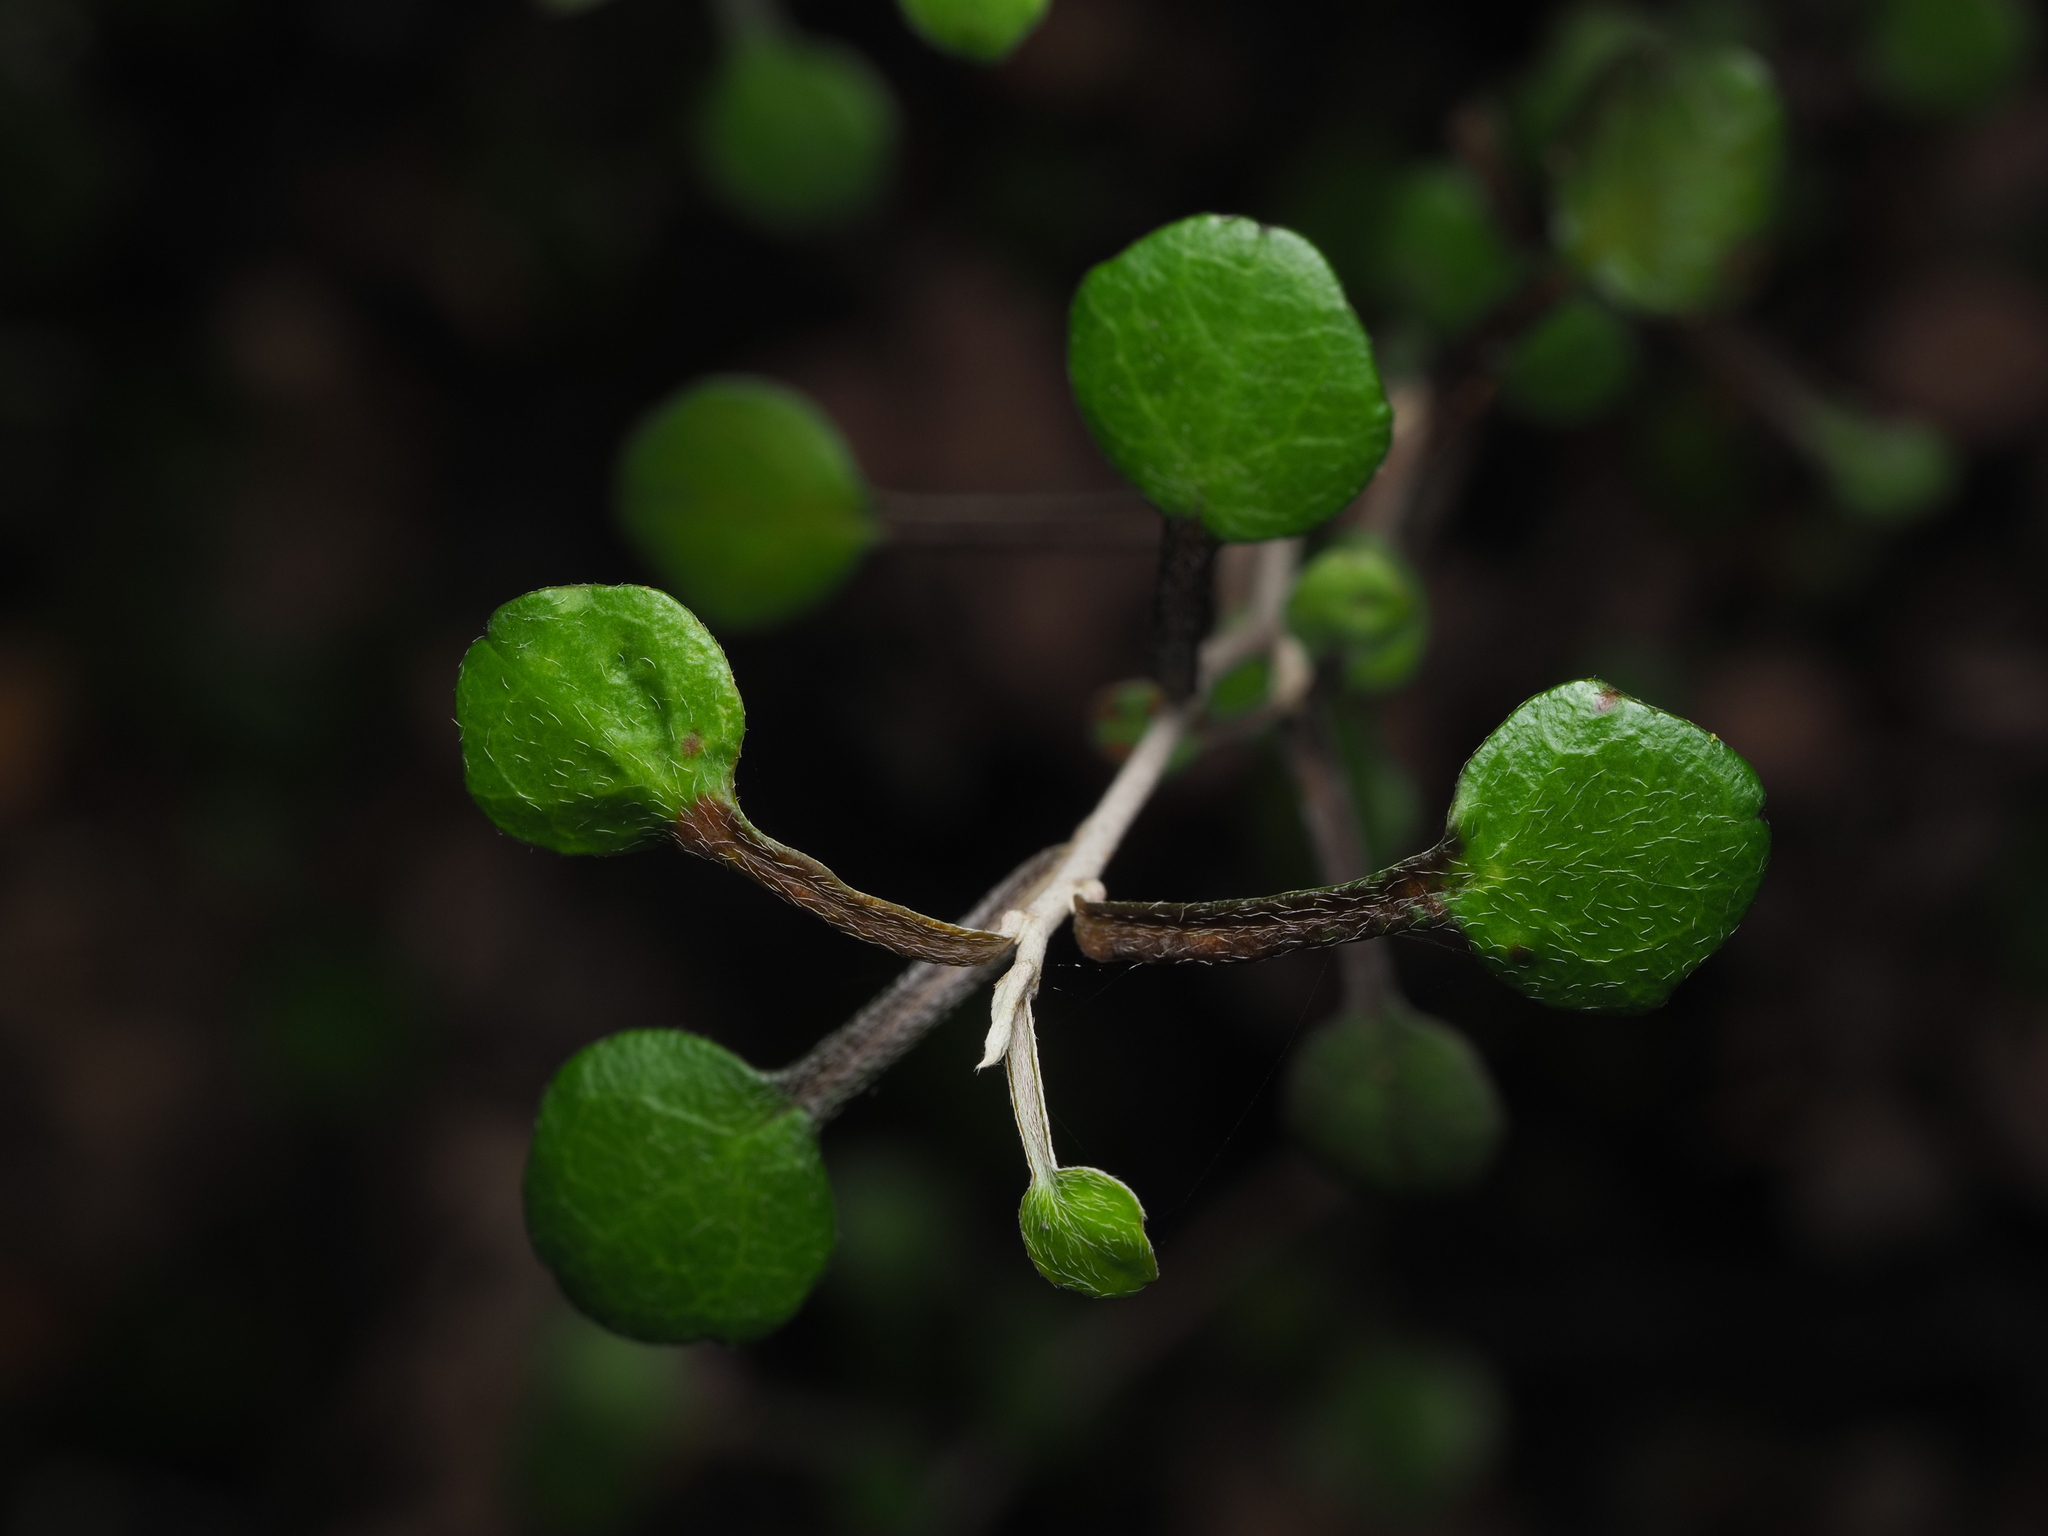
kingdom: Plantae
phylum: Tracheophyta
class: Magnoliopsida
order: Asterales
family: Argophyllaceae
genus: Corokia
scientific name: Corokia cotoneaster
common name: Wire nettingbush
